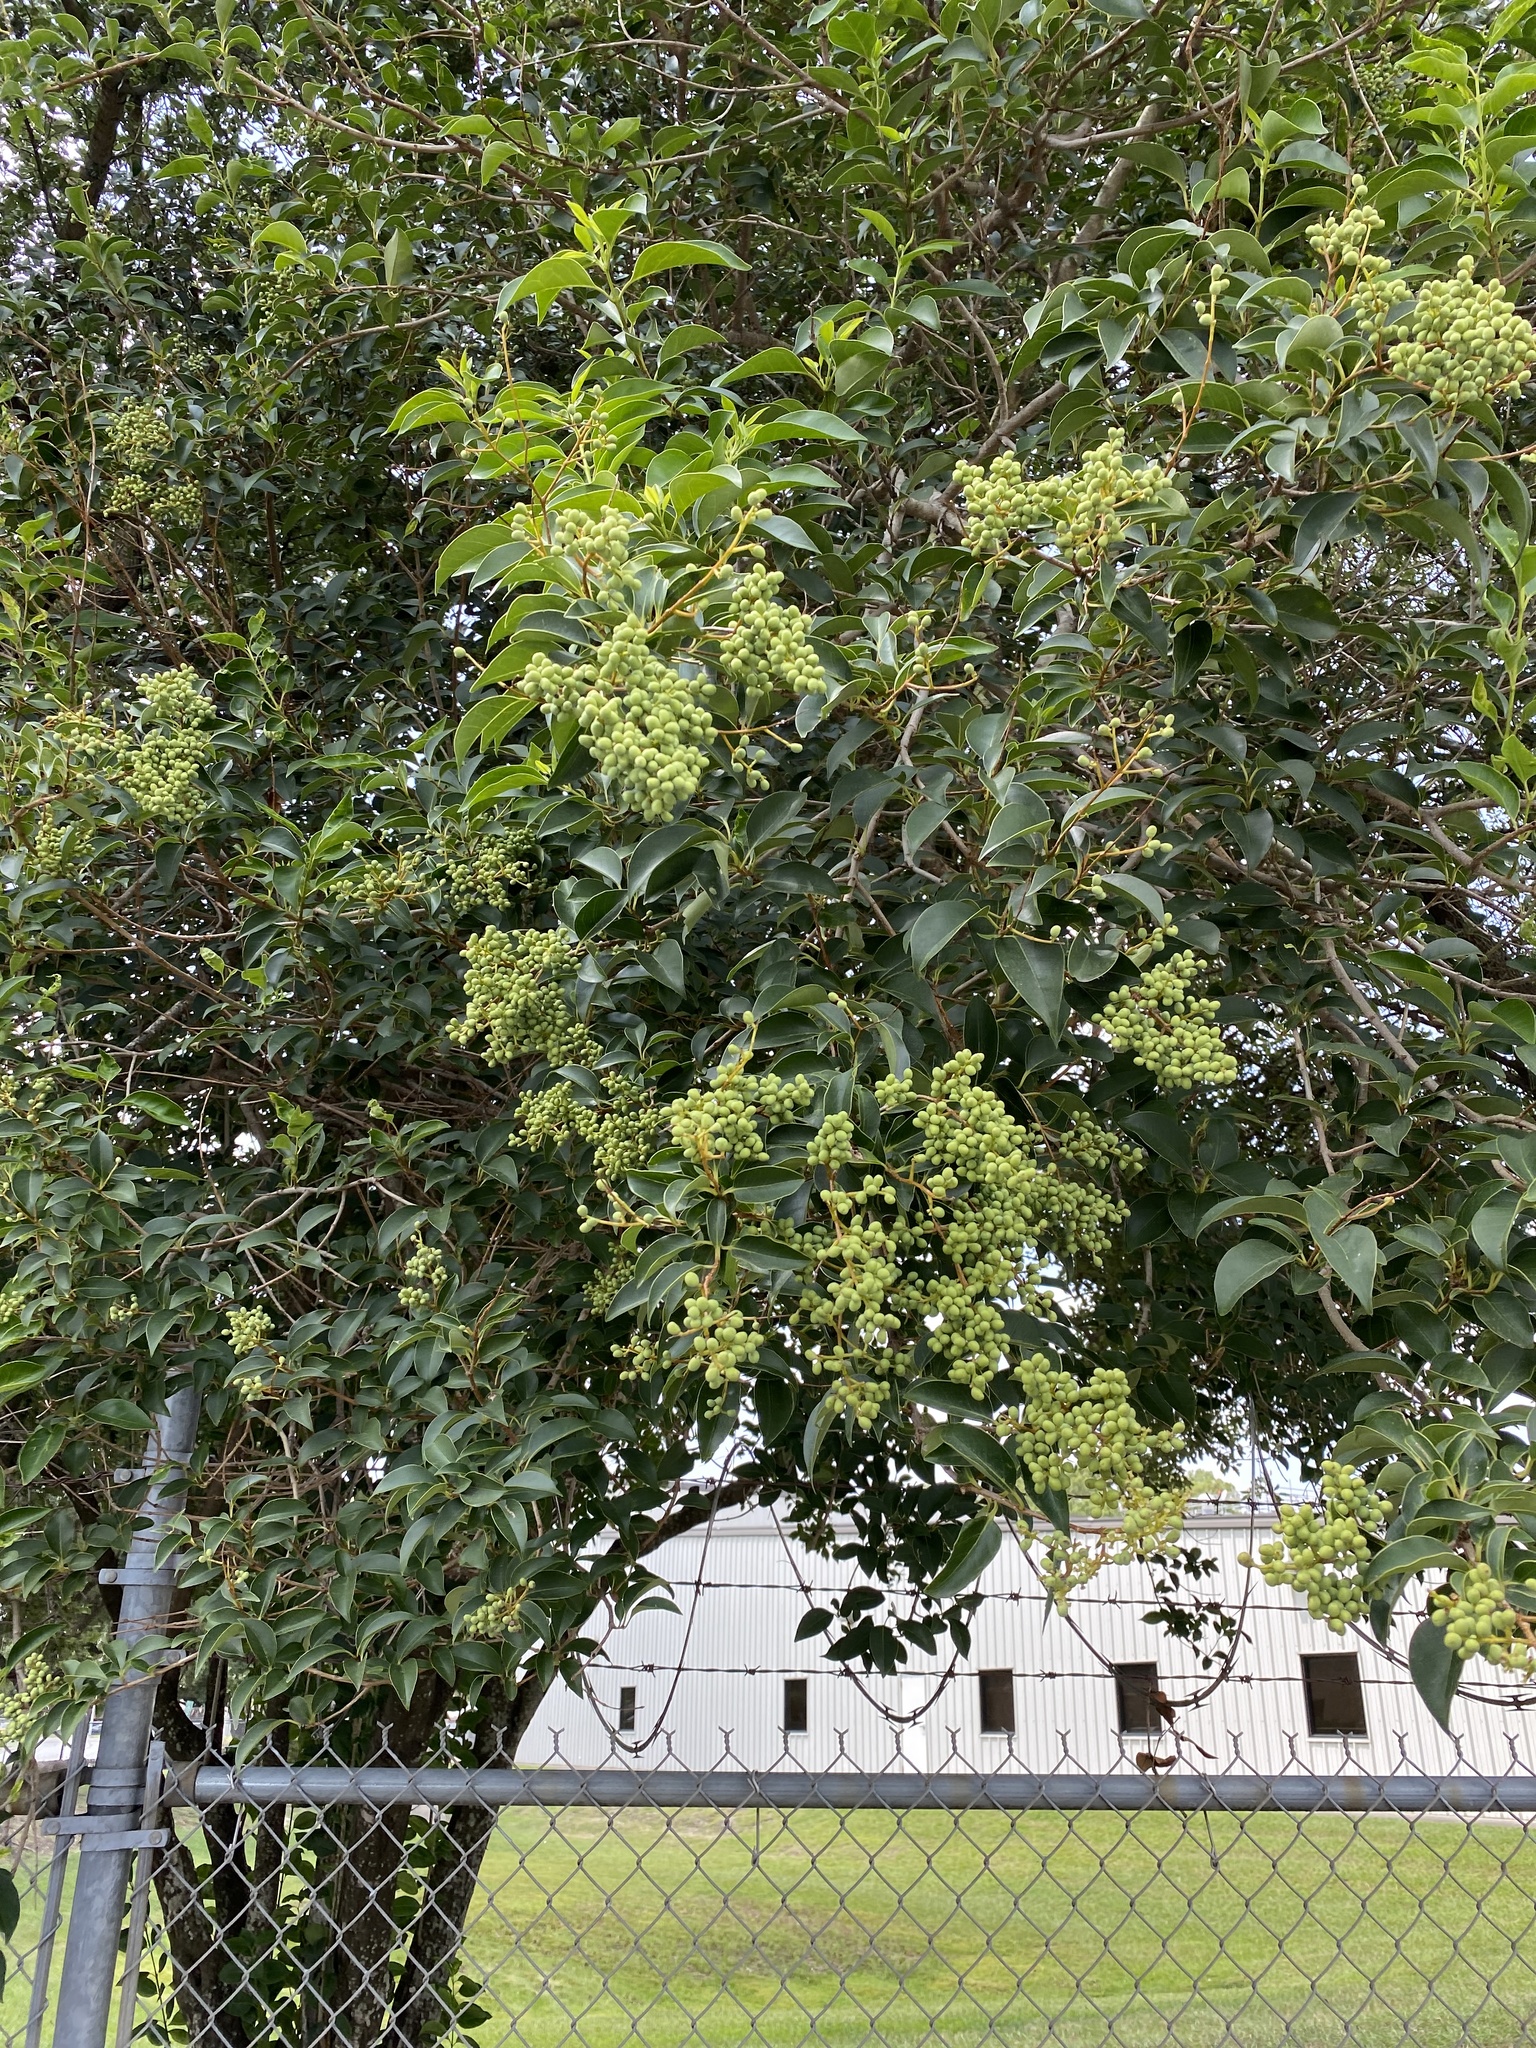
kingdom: Plantae
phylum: Tracheophyta
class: Magnoliopsida
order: Lamiales
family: Oleaceae
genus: Ligustrum
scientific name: Ligustrum lucidum
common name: Glossy privet
